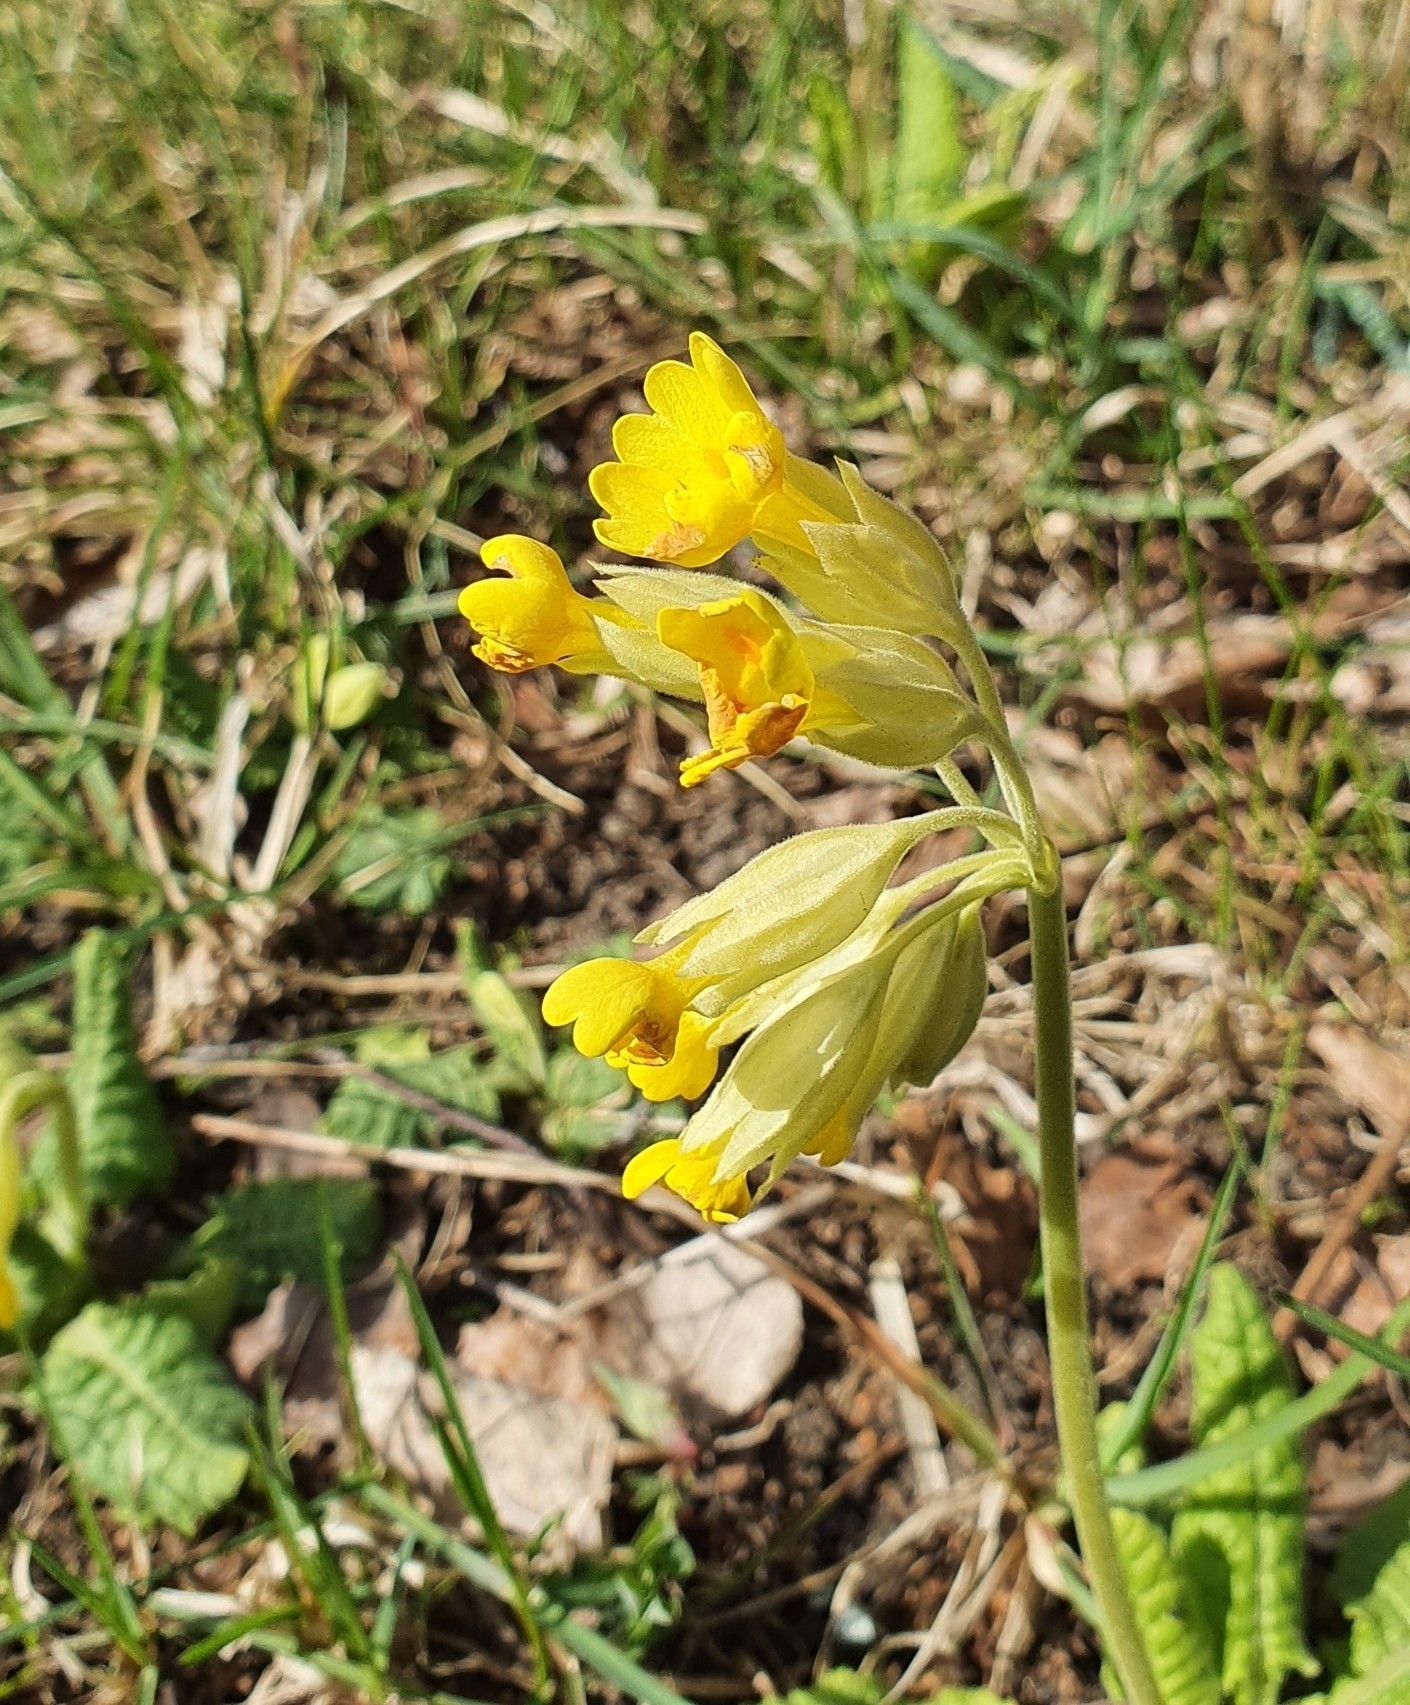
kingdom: Plantae
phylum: Tracheophyta
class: Magnoliopsida
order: Ericales
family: Primulaceae
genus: Primula
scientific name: Primula veris
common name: Cowslip
